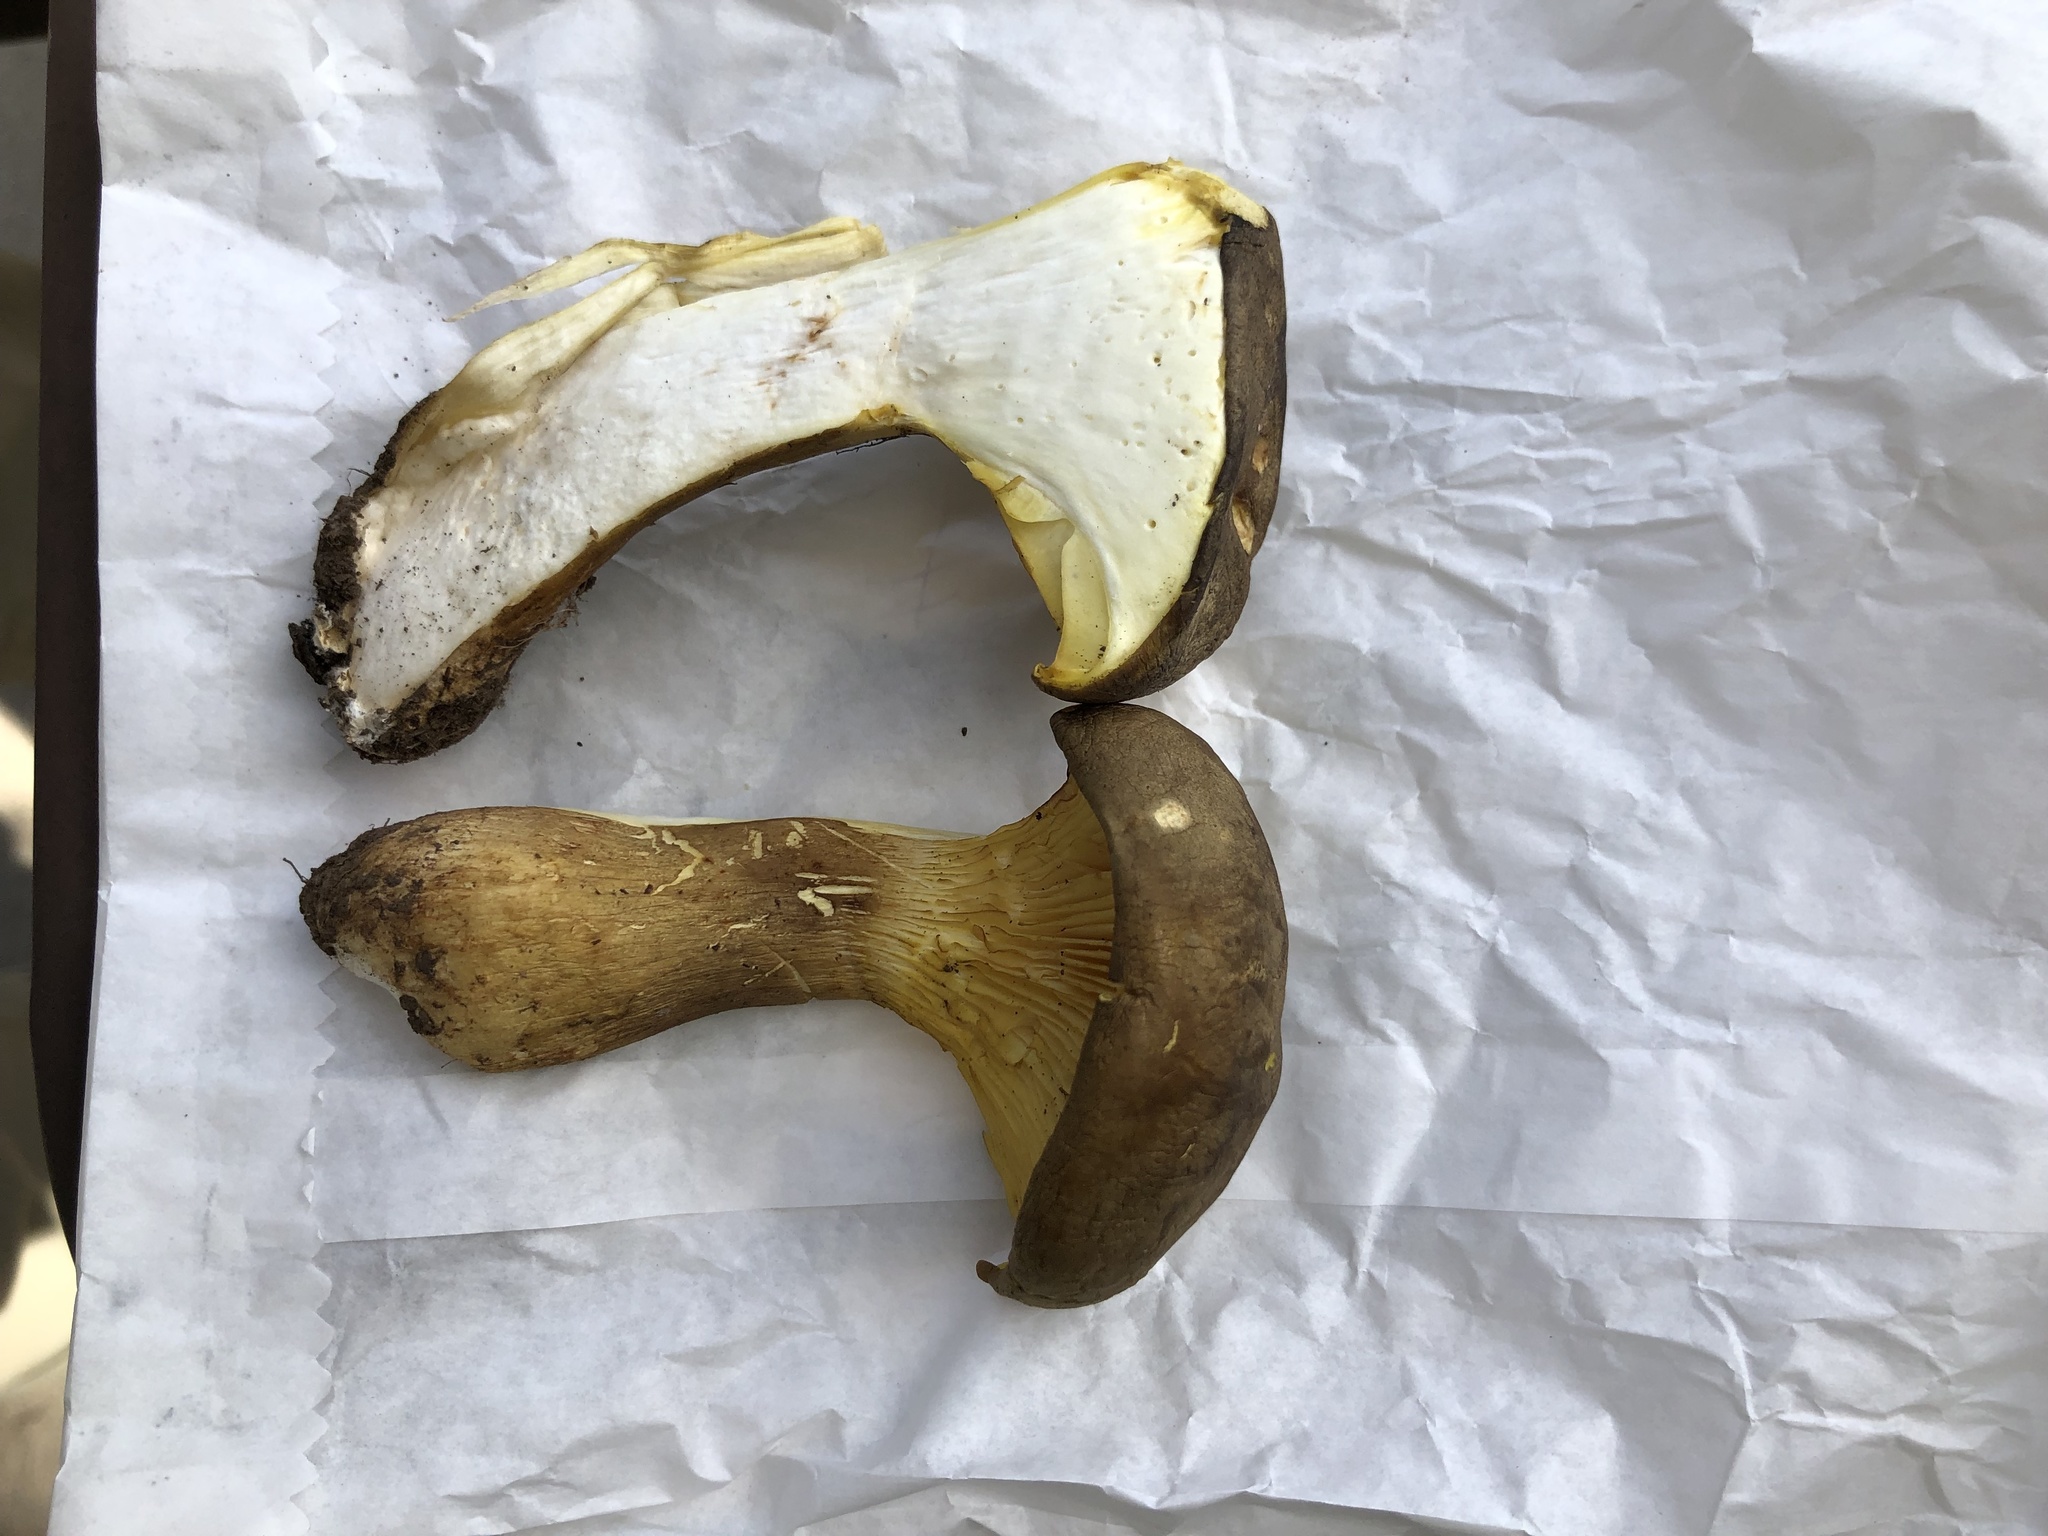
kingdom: Fungi
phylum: Basidiomycota
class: Agaricomycetes
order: Agaricales
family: Hygrophoraceae
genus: Cantharocybe
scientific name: Cantharocybe gruberi
